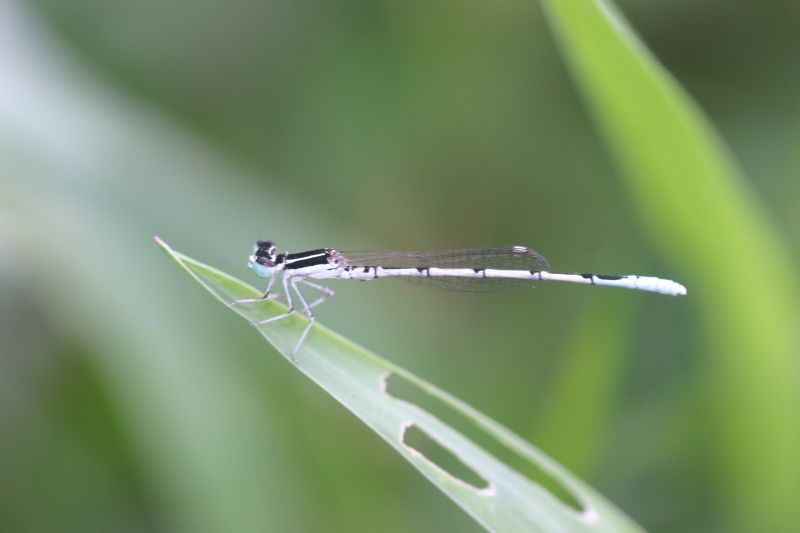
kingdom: Animalia
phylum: Arthropoda
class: Insecta
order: Odonata
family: Coenagrionidae
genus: Agriocnemis
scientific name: Agriocnemis pieris
